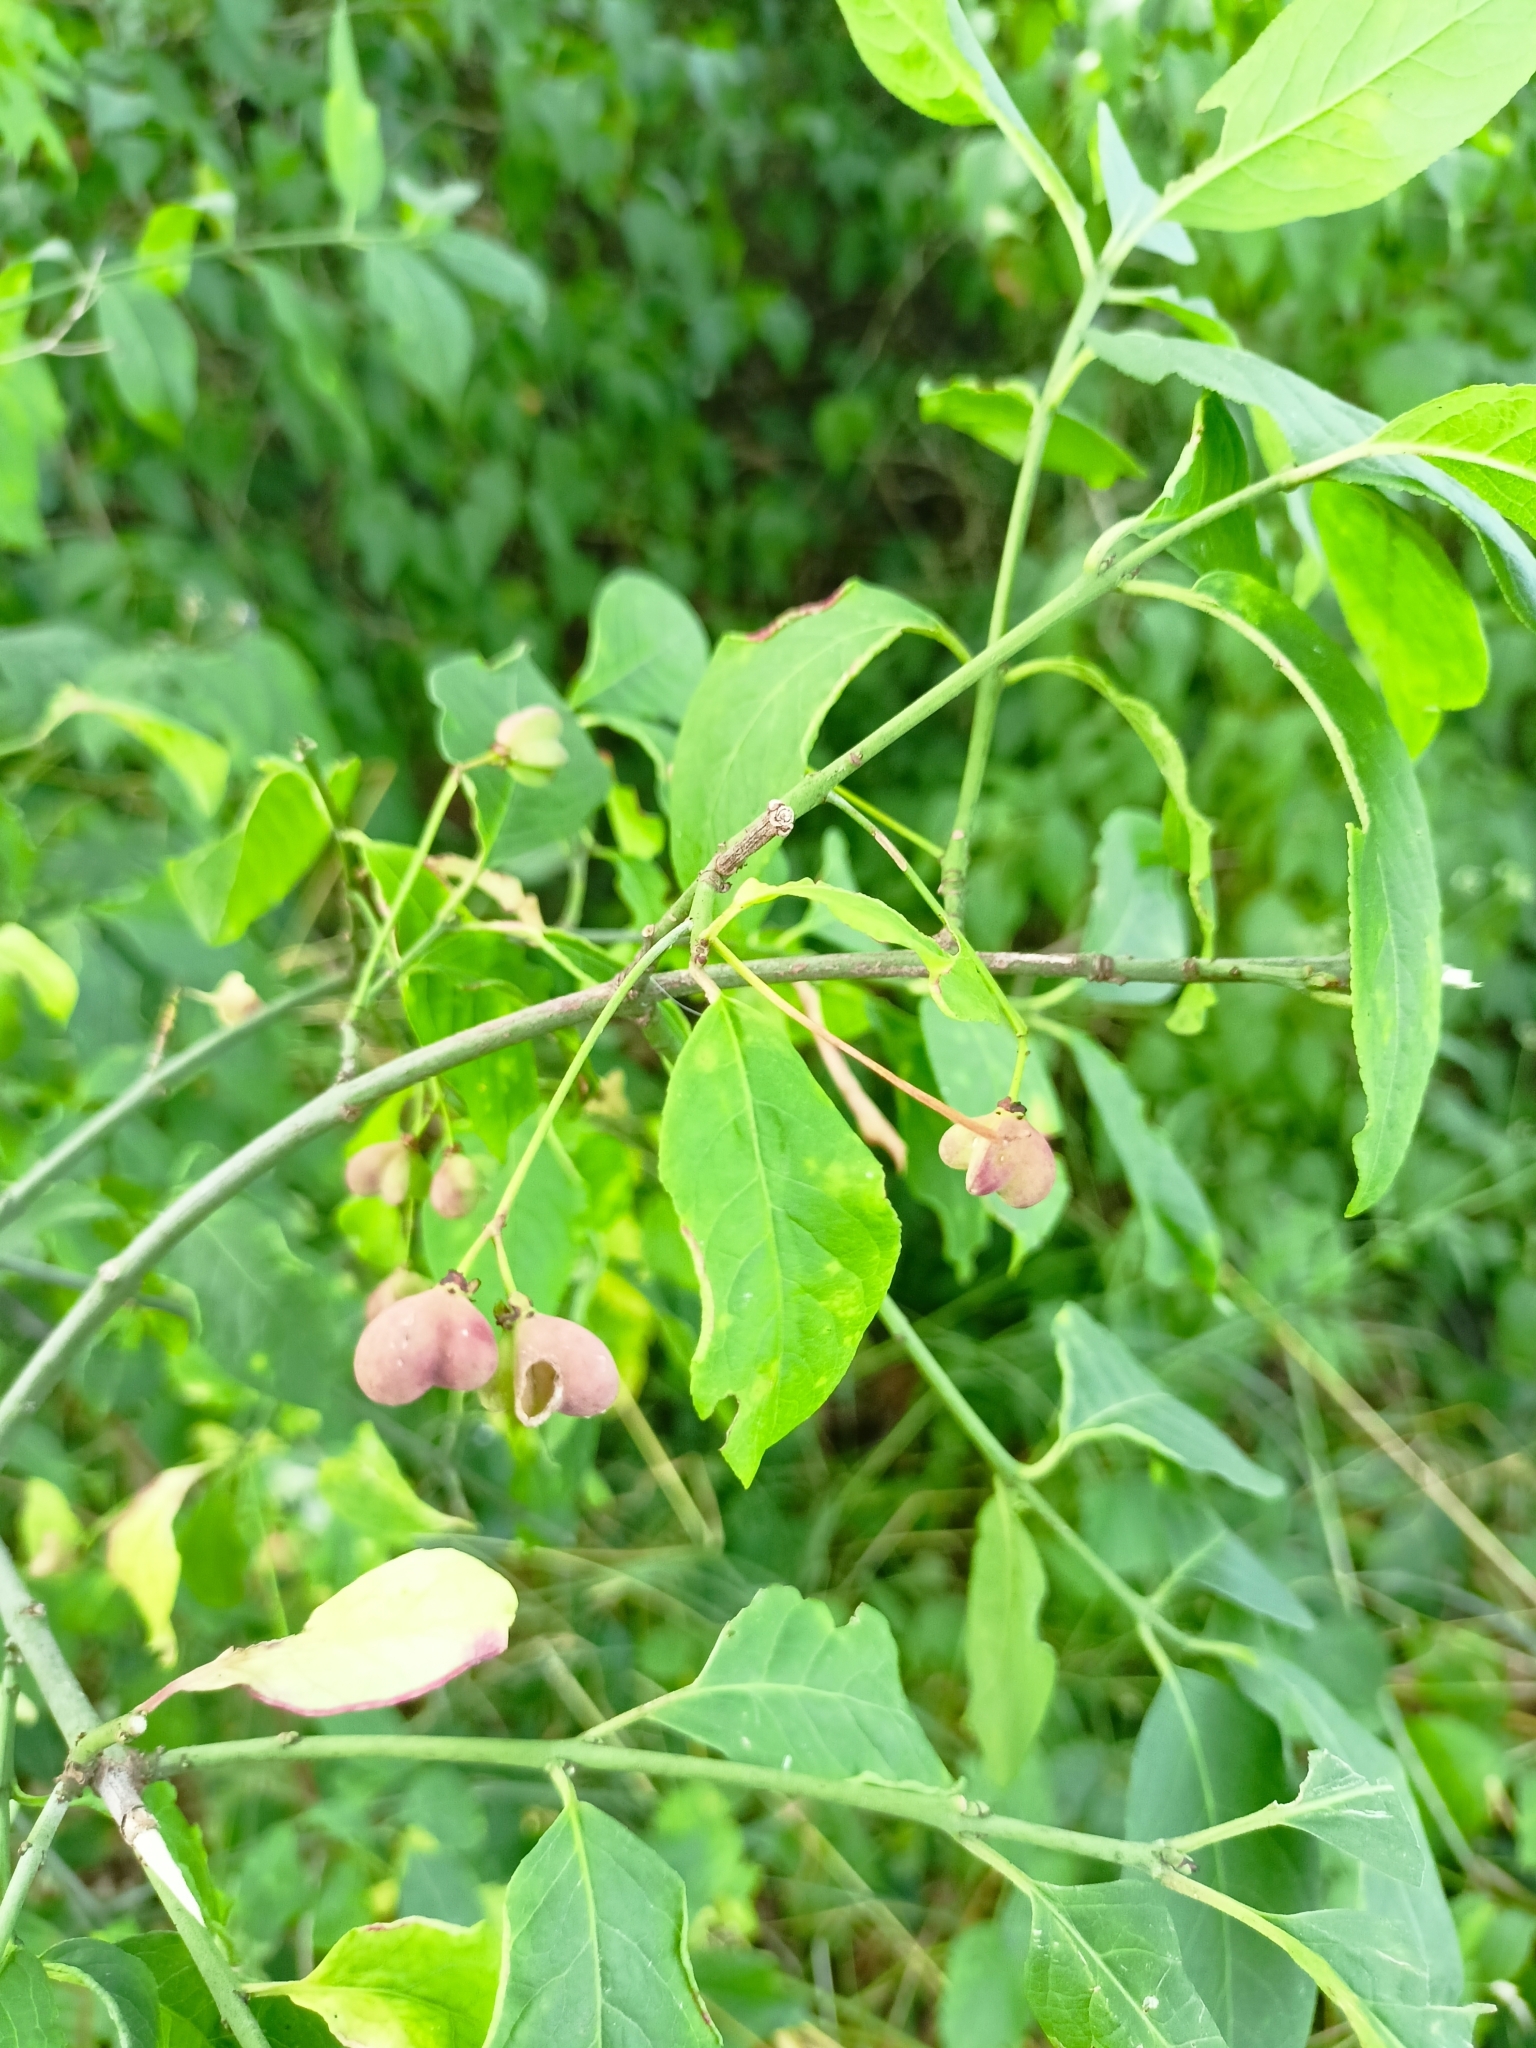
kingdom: Plantae
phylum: Tracheophyta
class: Magnoliopsida
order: Celastrales
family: Celastraceae
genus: Euonymus
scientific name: Euonymus europaeus
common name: Spindle
